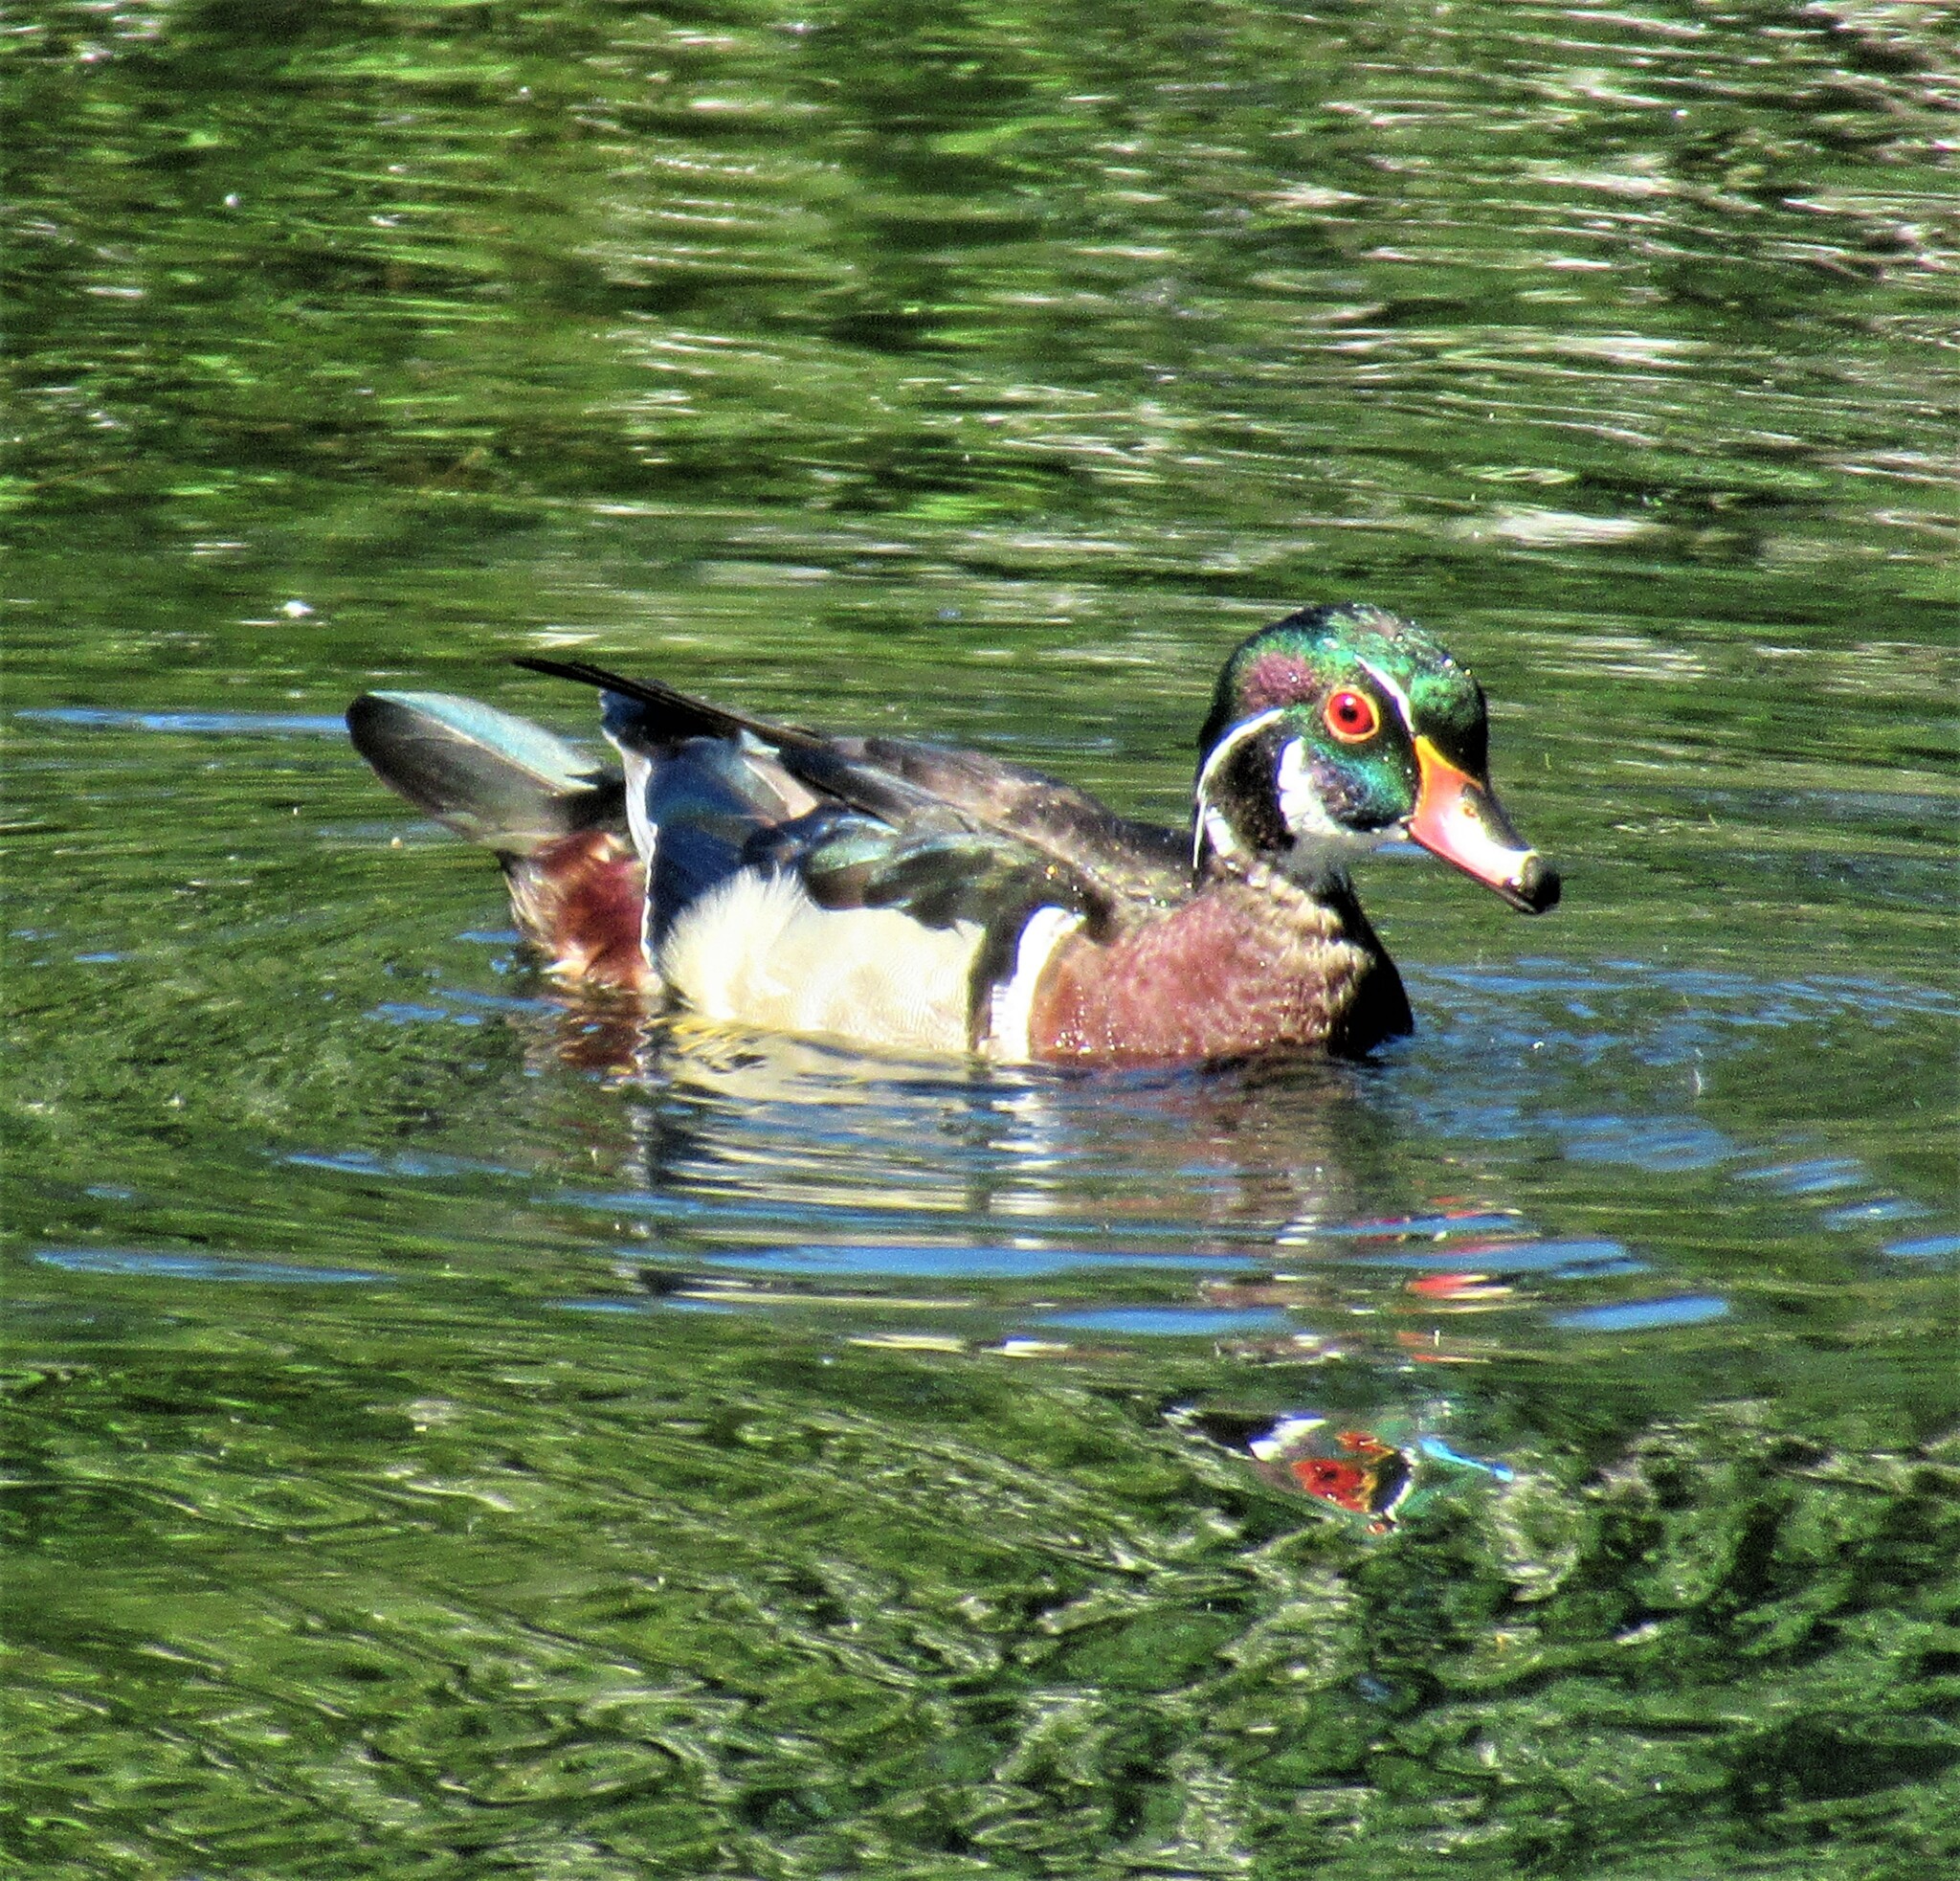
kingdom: Animalia
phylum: Chordata
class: Aves
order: Anseriformes
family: Anatidae
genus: Aix
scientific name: Aix sponsa
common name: Wood duck
